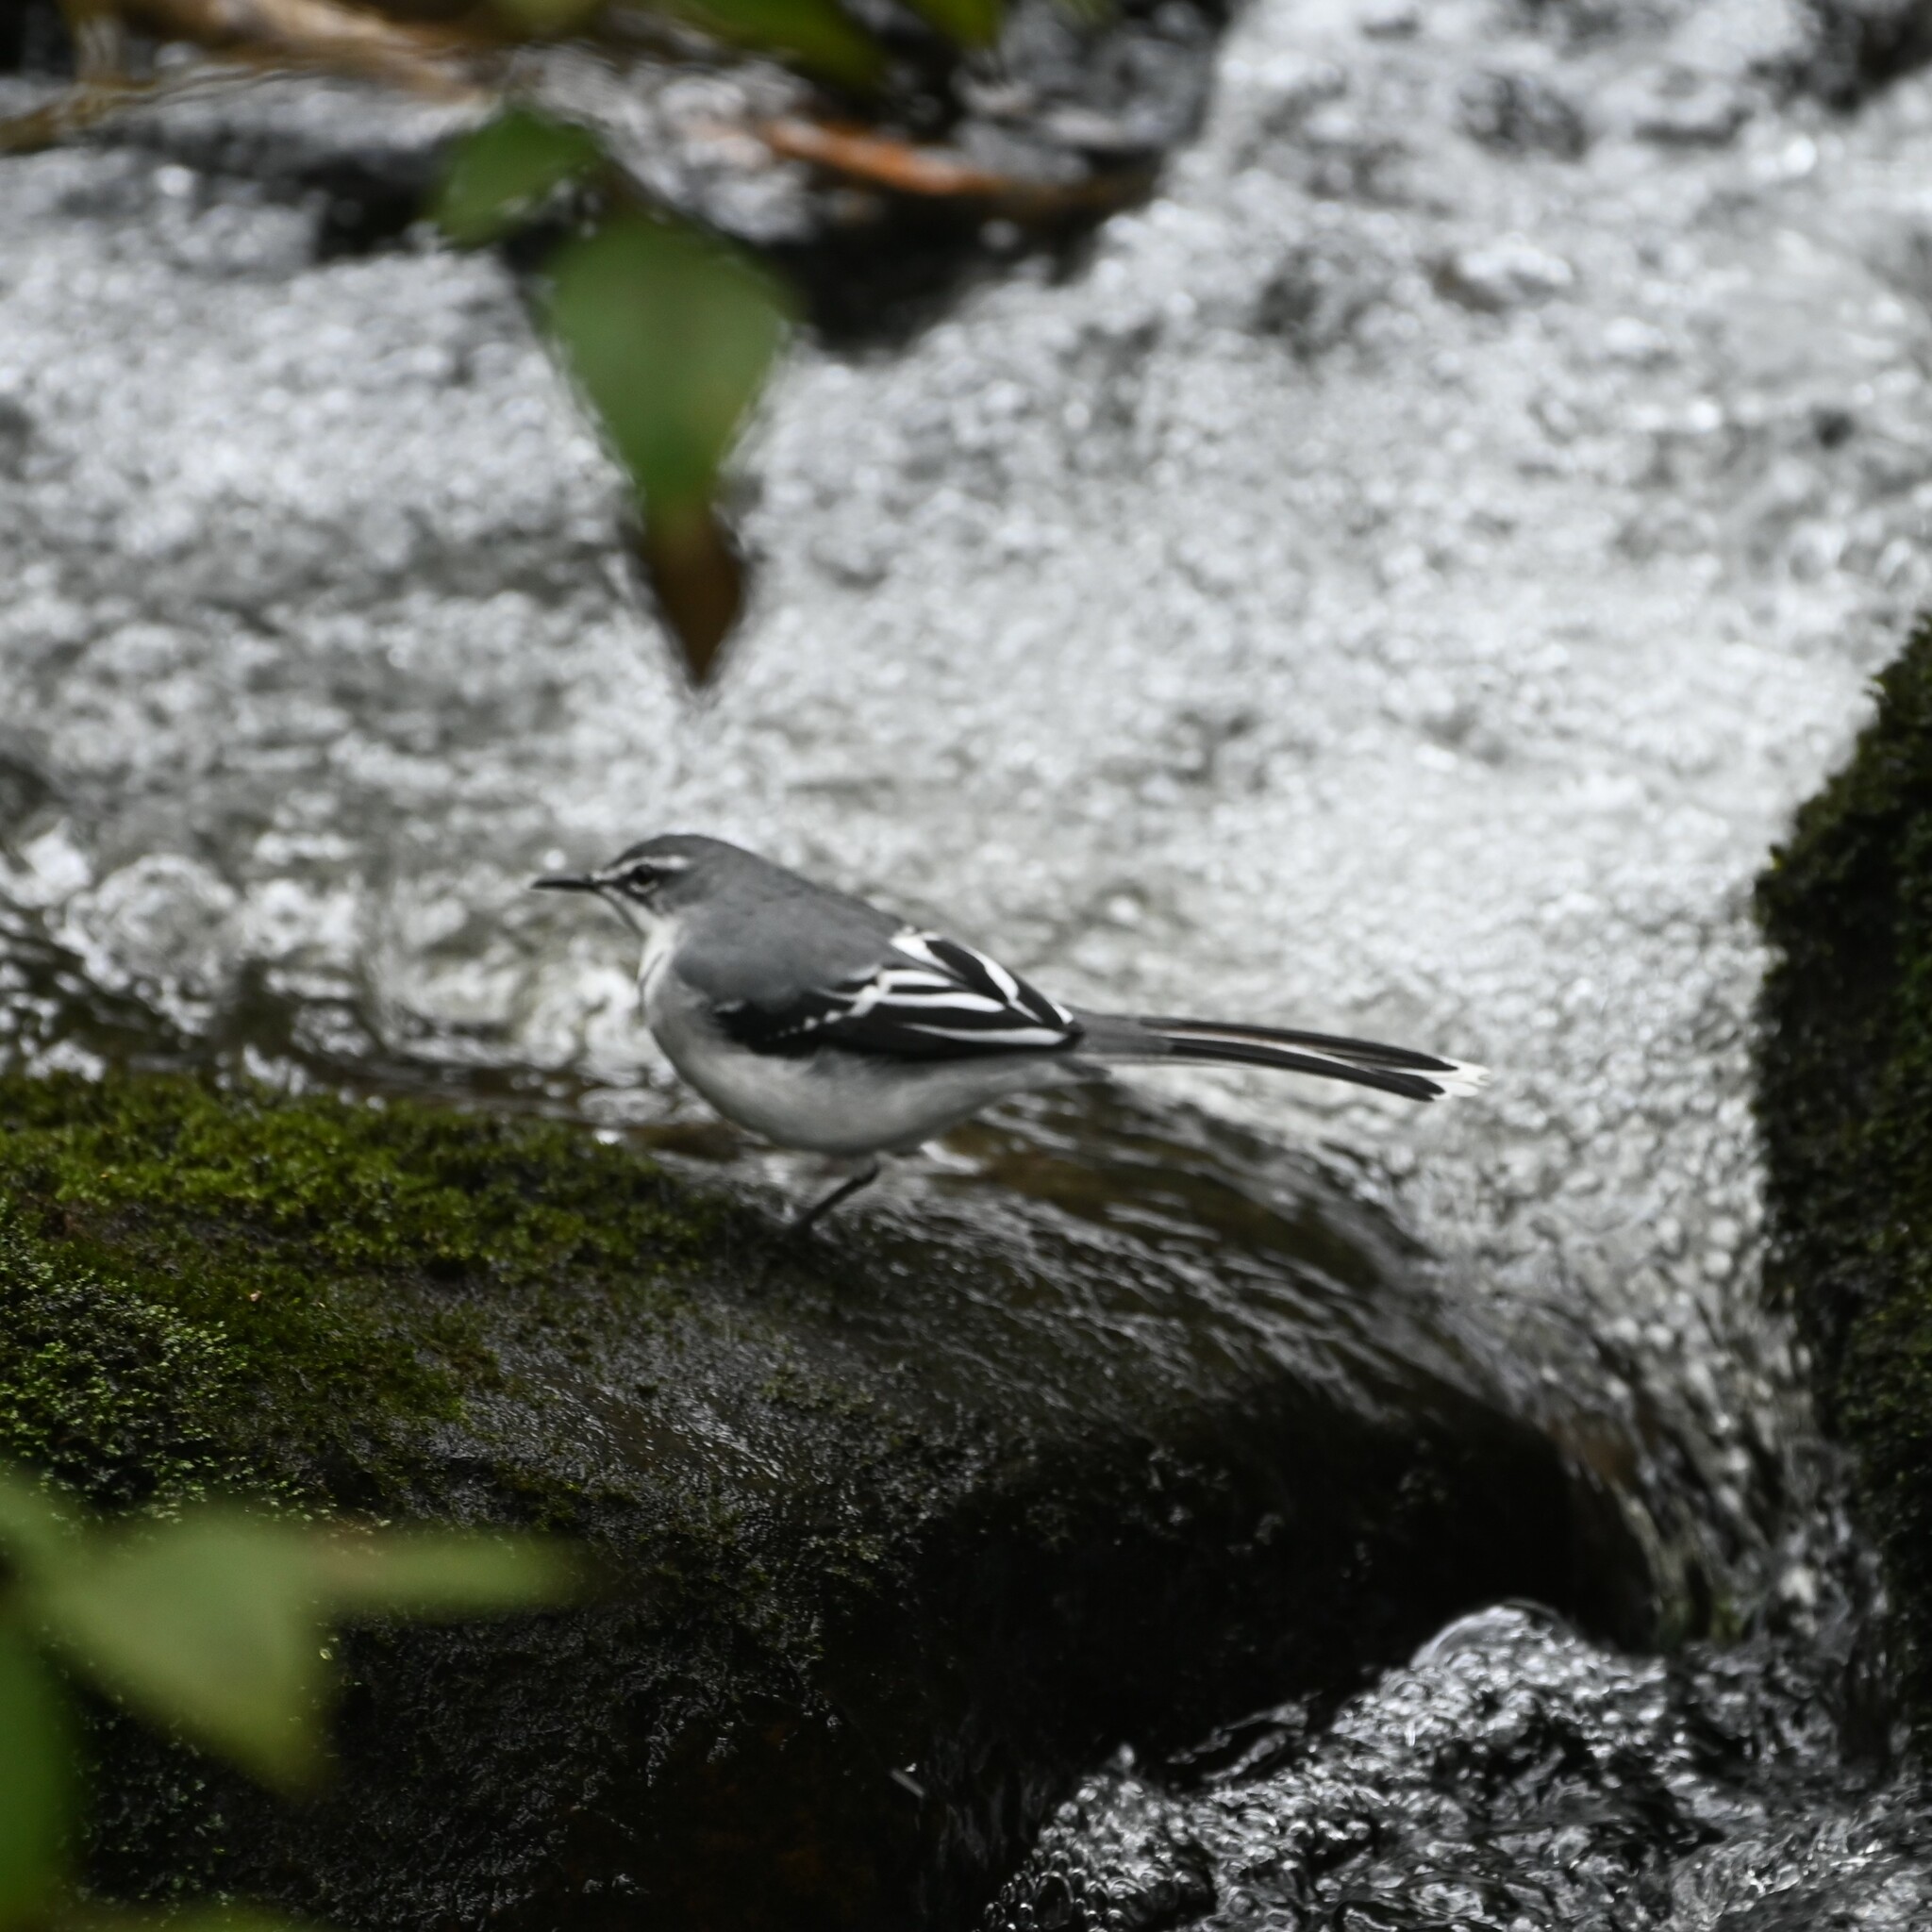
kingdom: Animalia
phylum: Chordata
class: Aves
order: Passeriformes
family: Motacillidae
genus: Motacilla
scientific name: Motacilla clara
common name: Mountain wagtail
